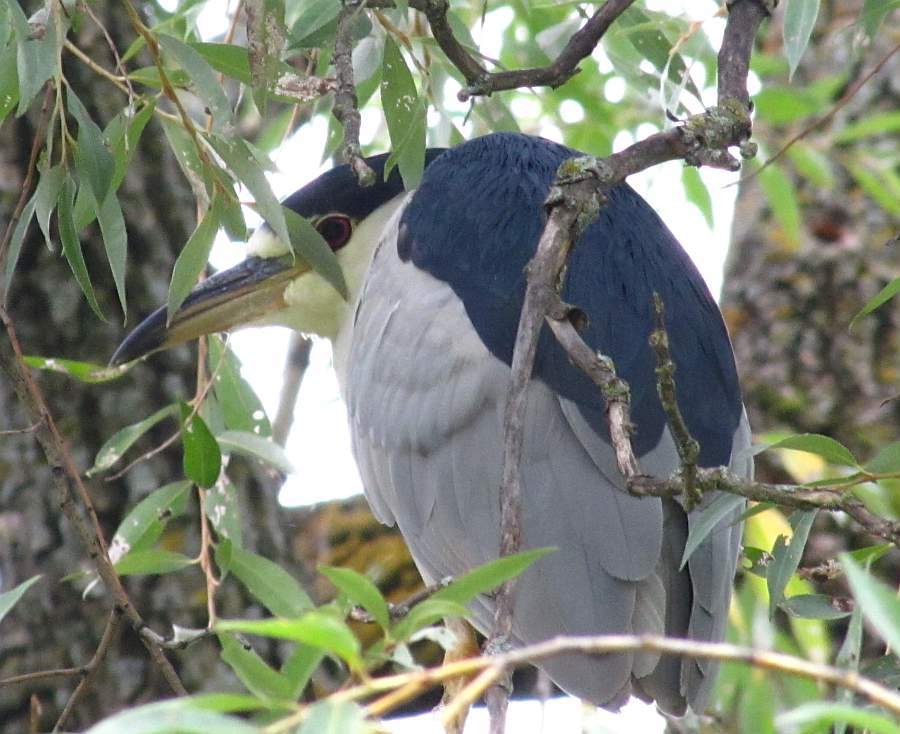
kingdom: Animalia
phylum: Chordata
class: Aves
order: Pelecaniformes
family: Ardeidae
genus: Nycticorax
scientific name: Nycticorax nycticorax
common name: Black-crowned night heron
